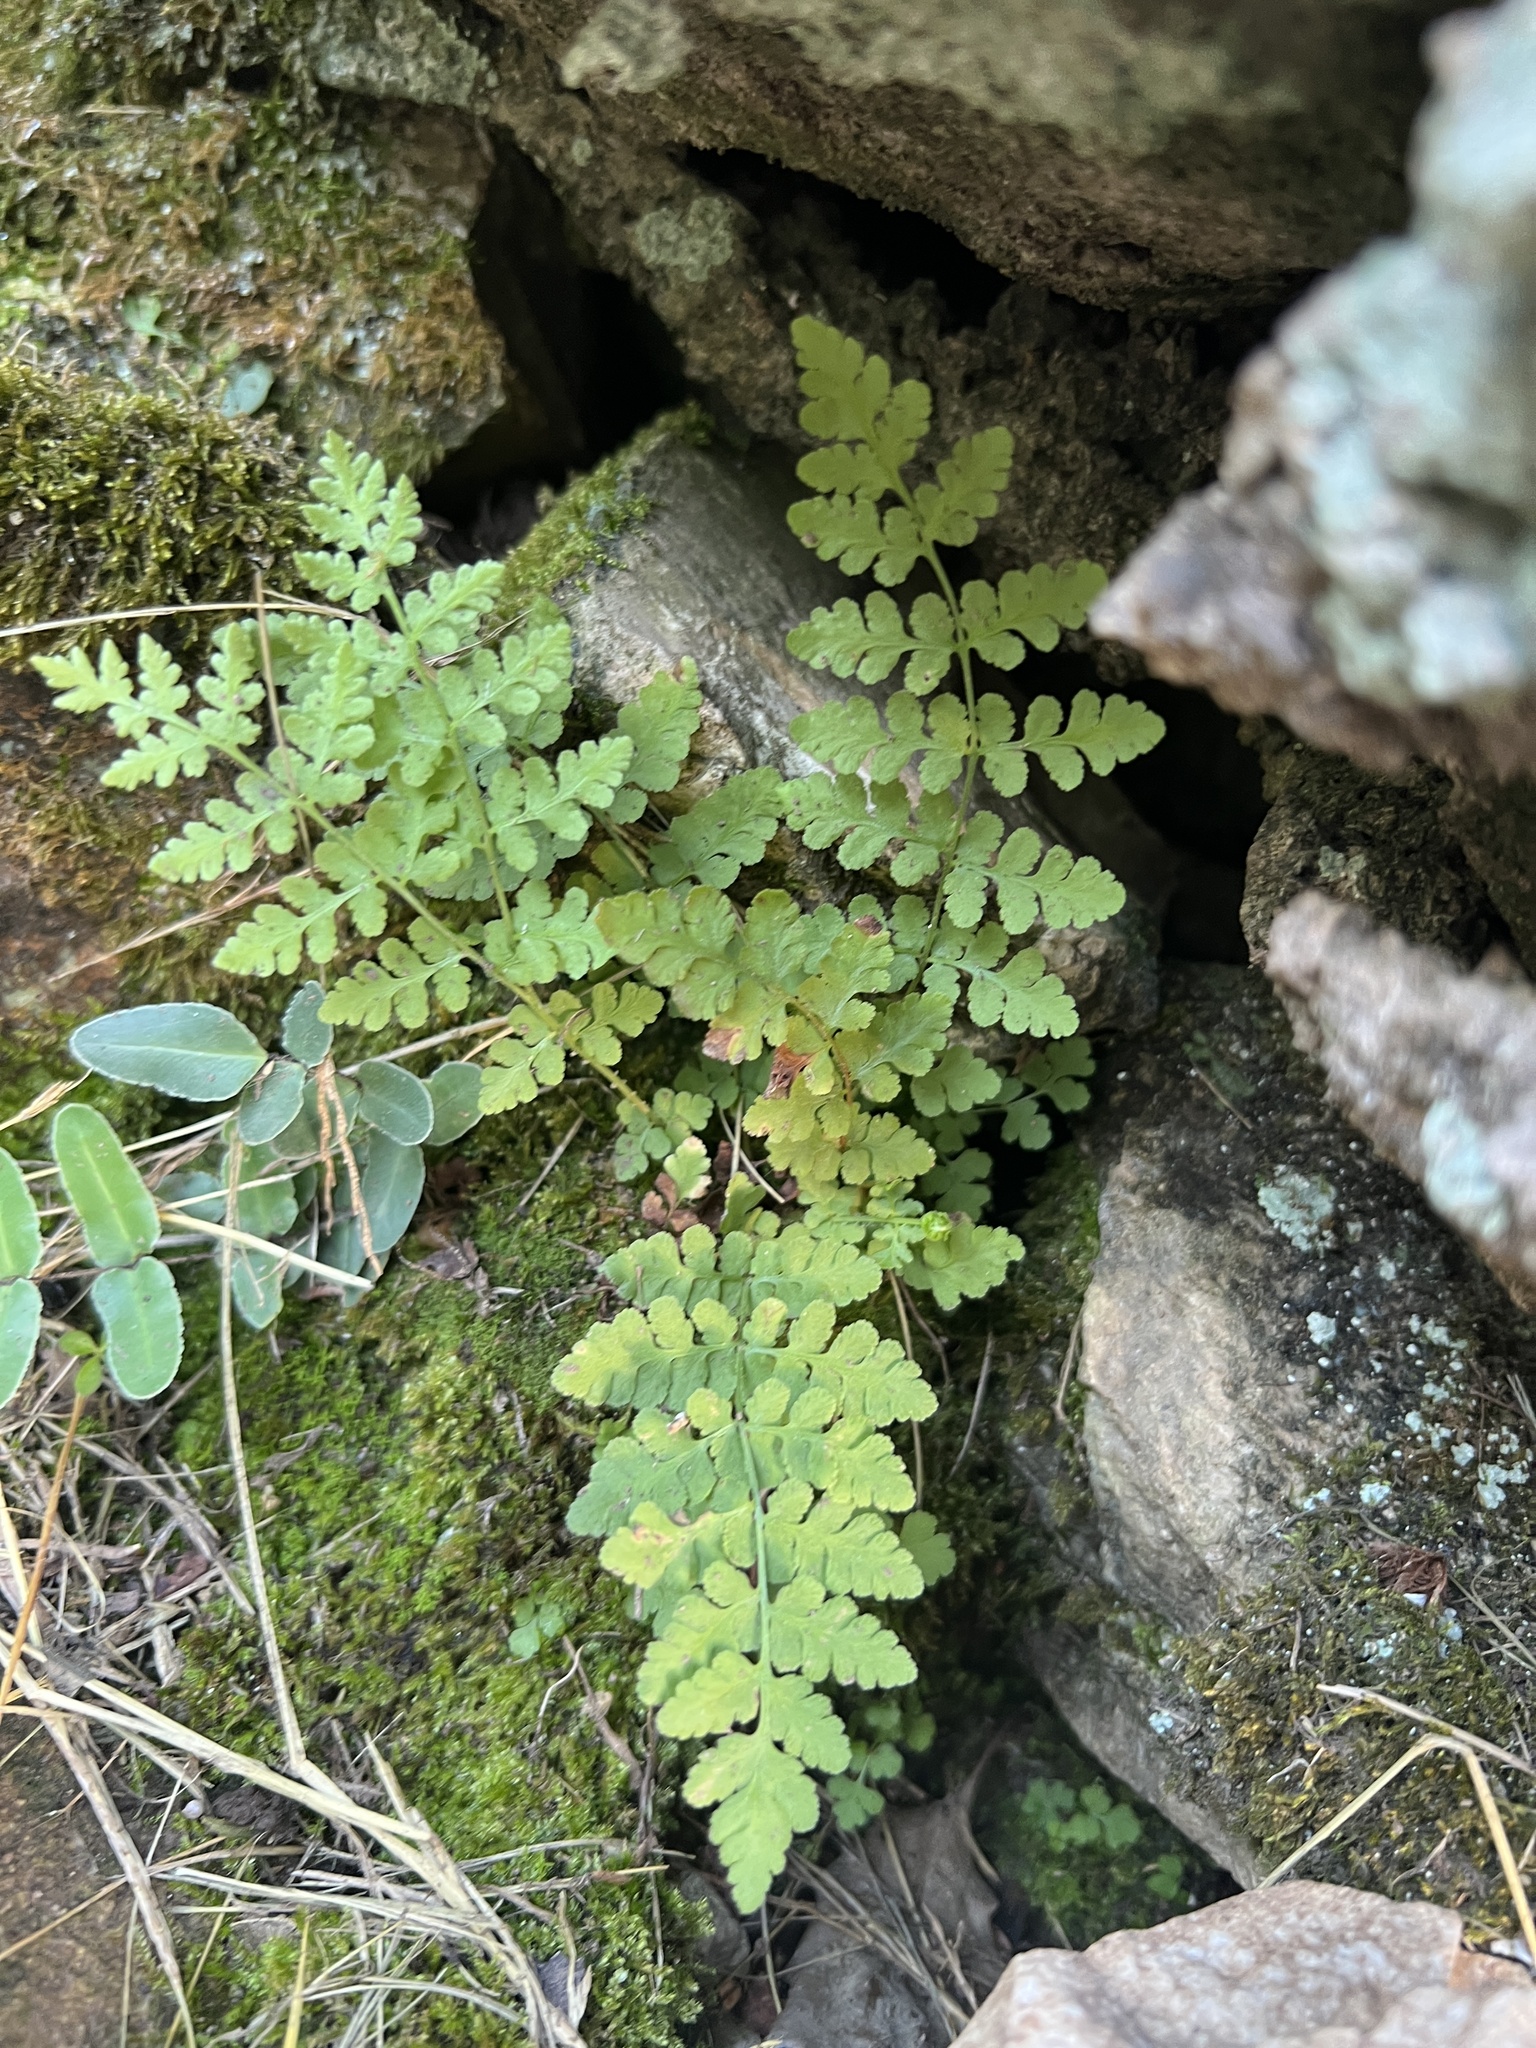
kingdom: Plantae
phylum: Tracheophyta
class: Polypodiopsida
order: Polypodiales
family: Woodsiaceae
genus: Physematium
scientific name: Physematium obtusum
